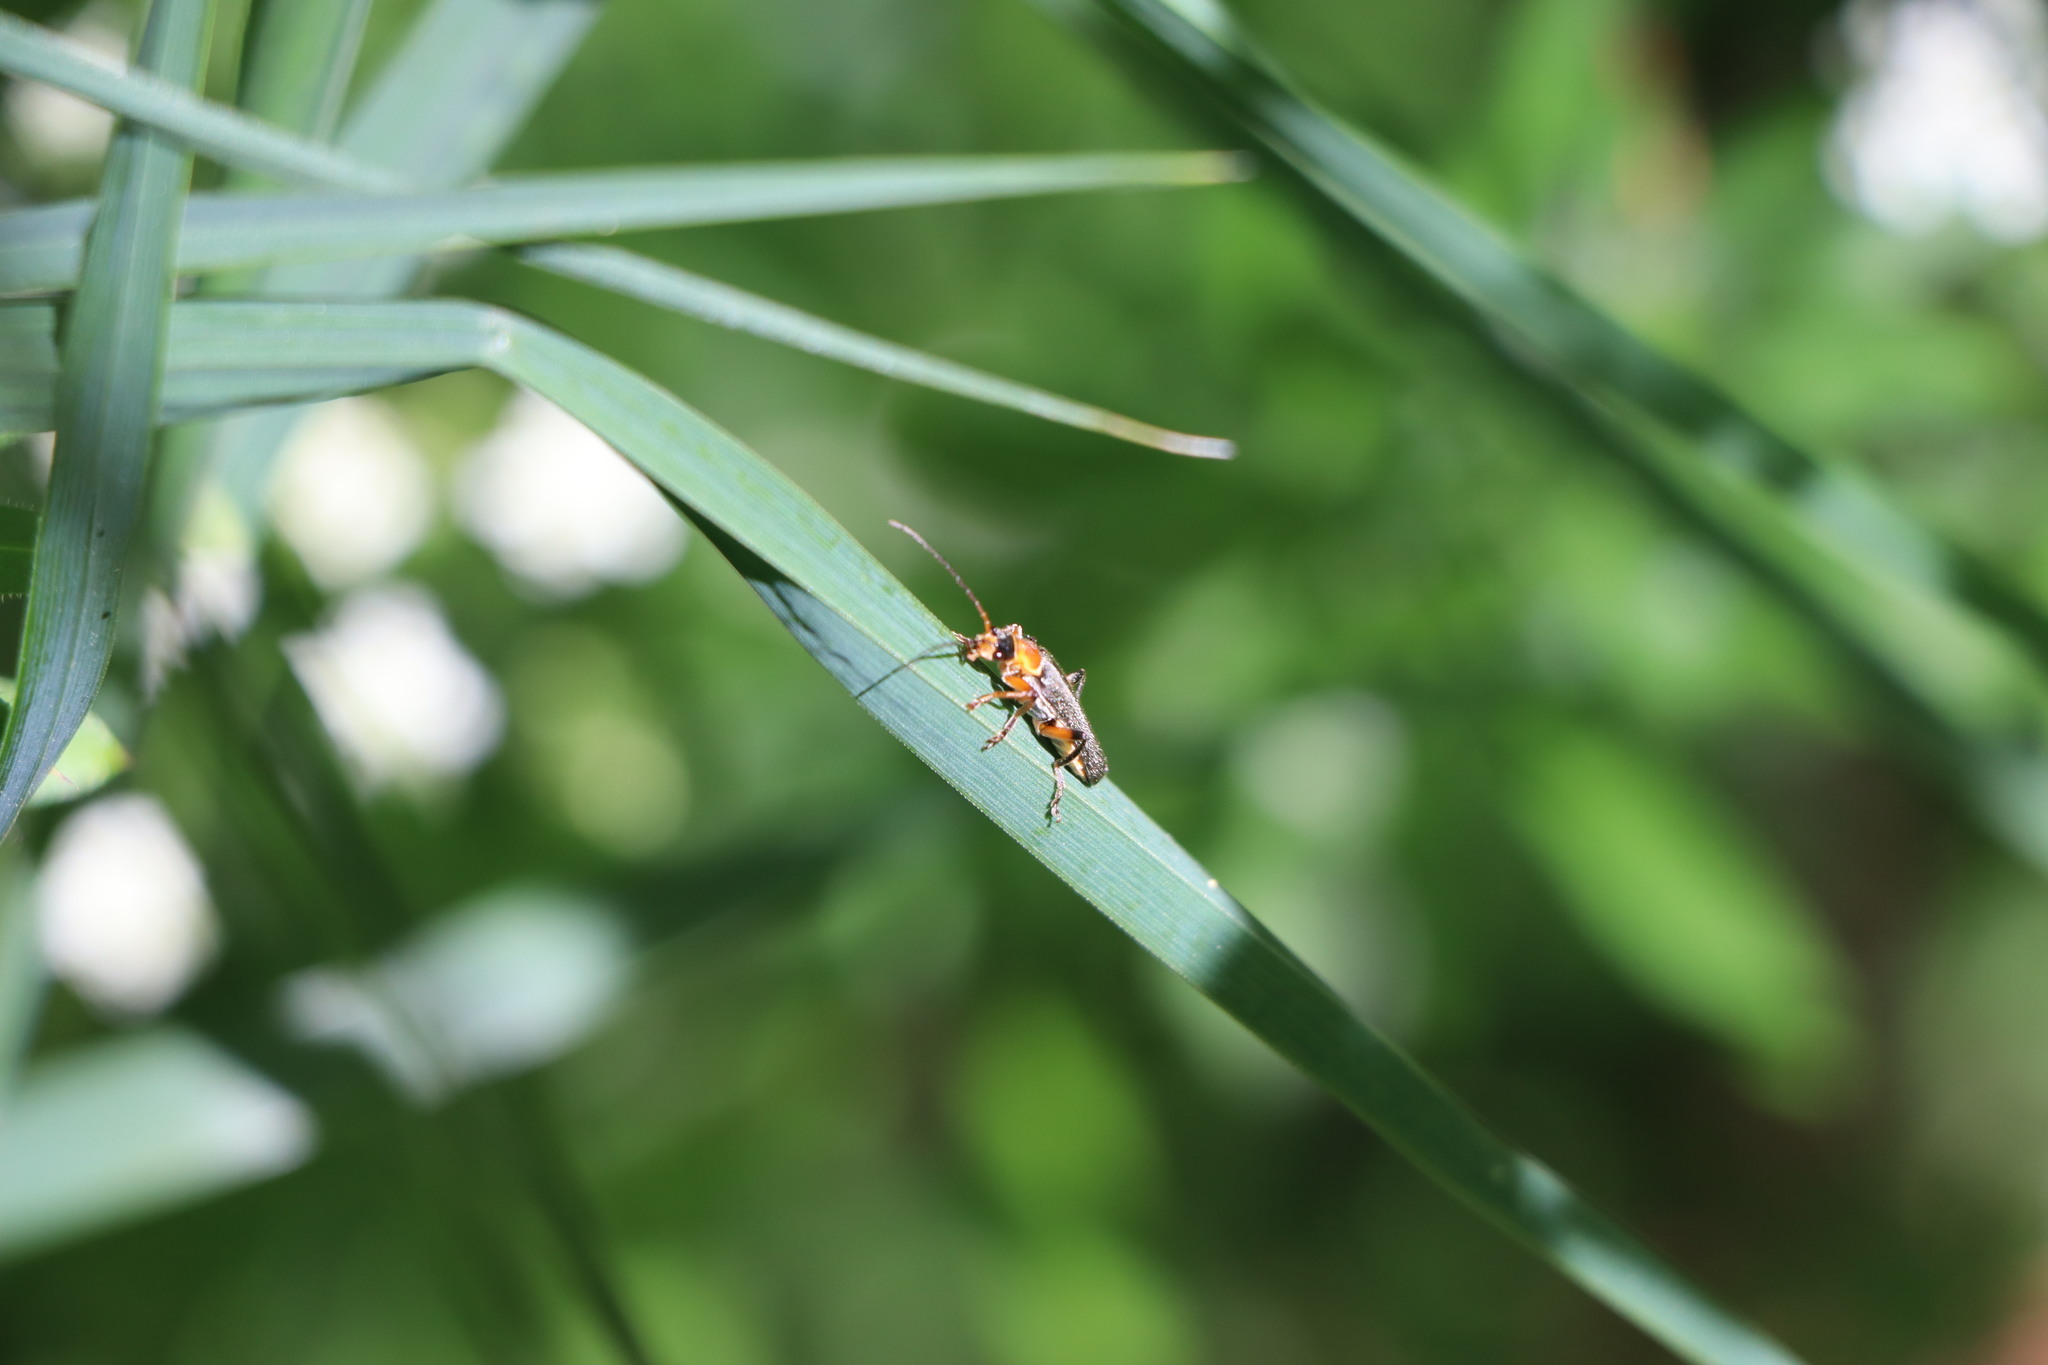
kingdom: Animalia
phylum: Arthropoda
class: Insecta
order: Coleoptera
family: Cantharidae
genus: Cantharis
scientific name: Cantharis nigricans
